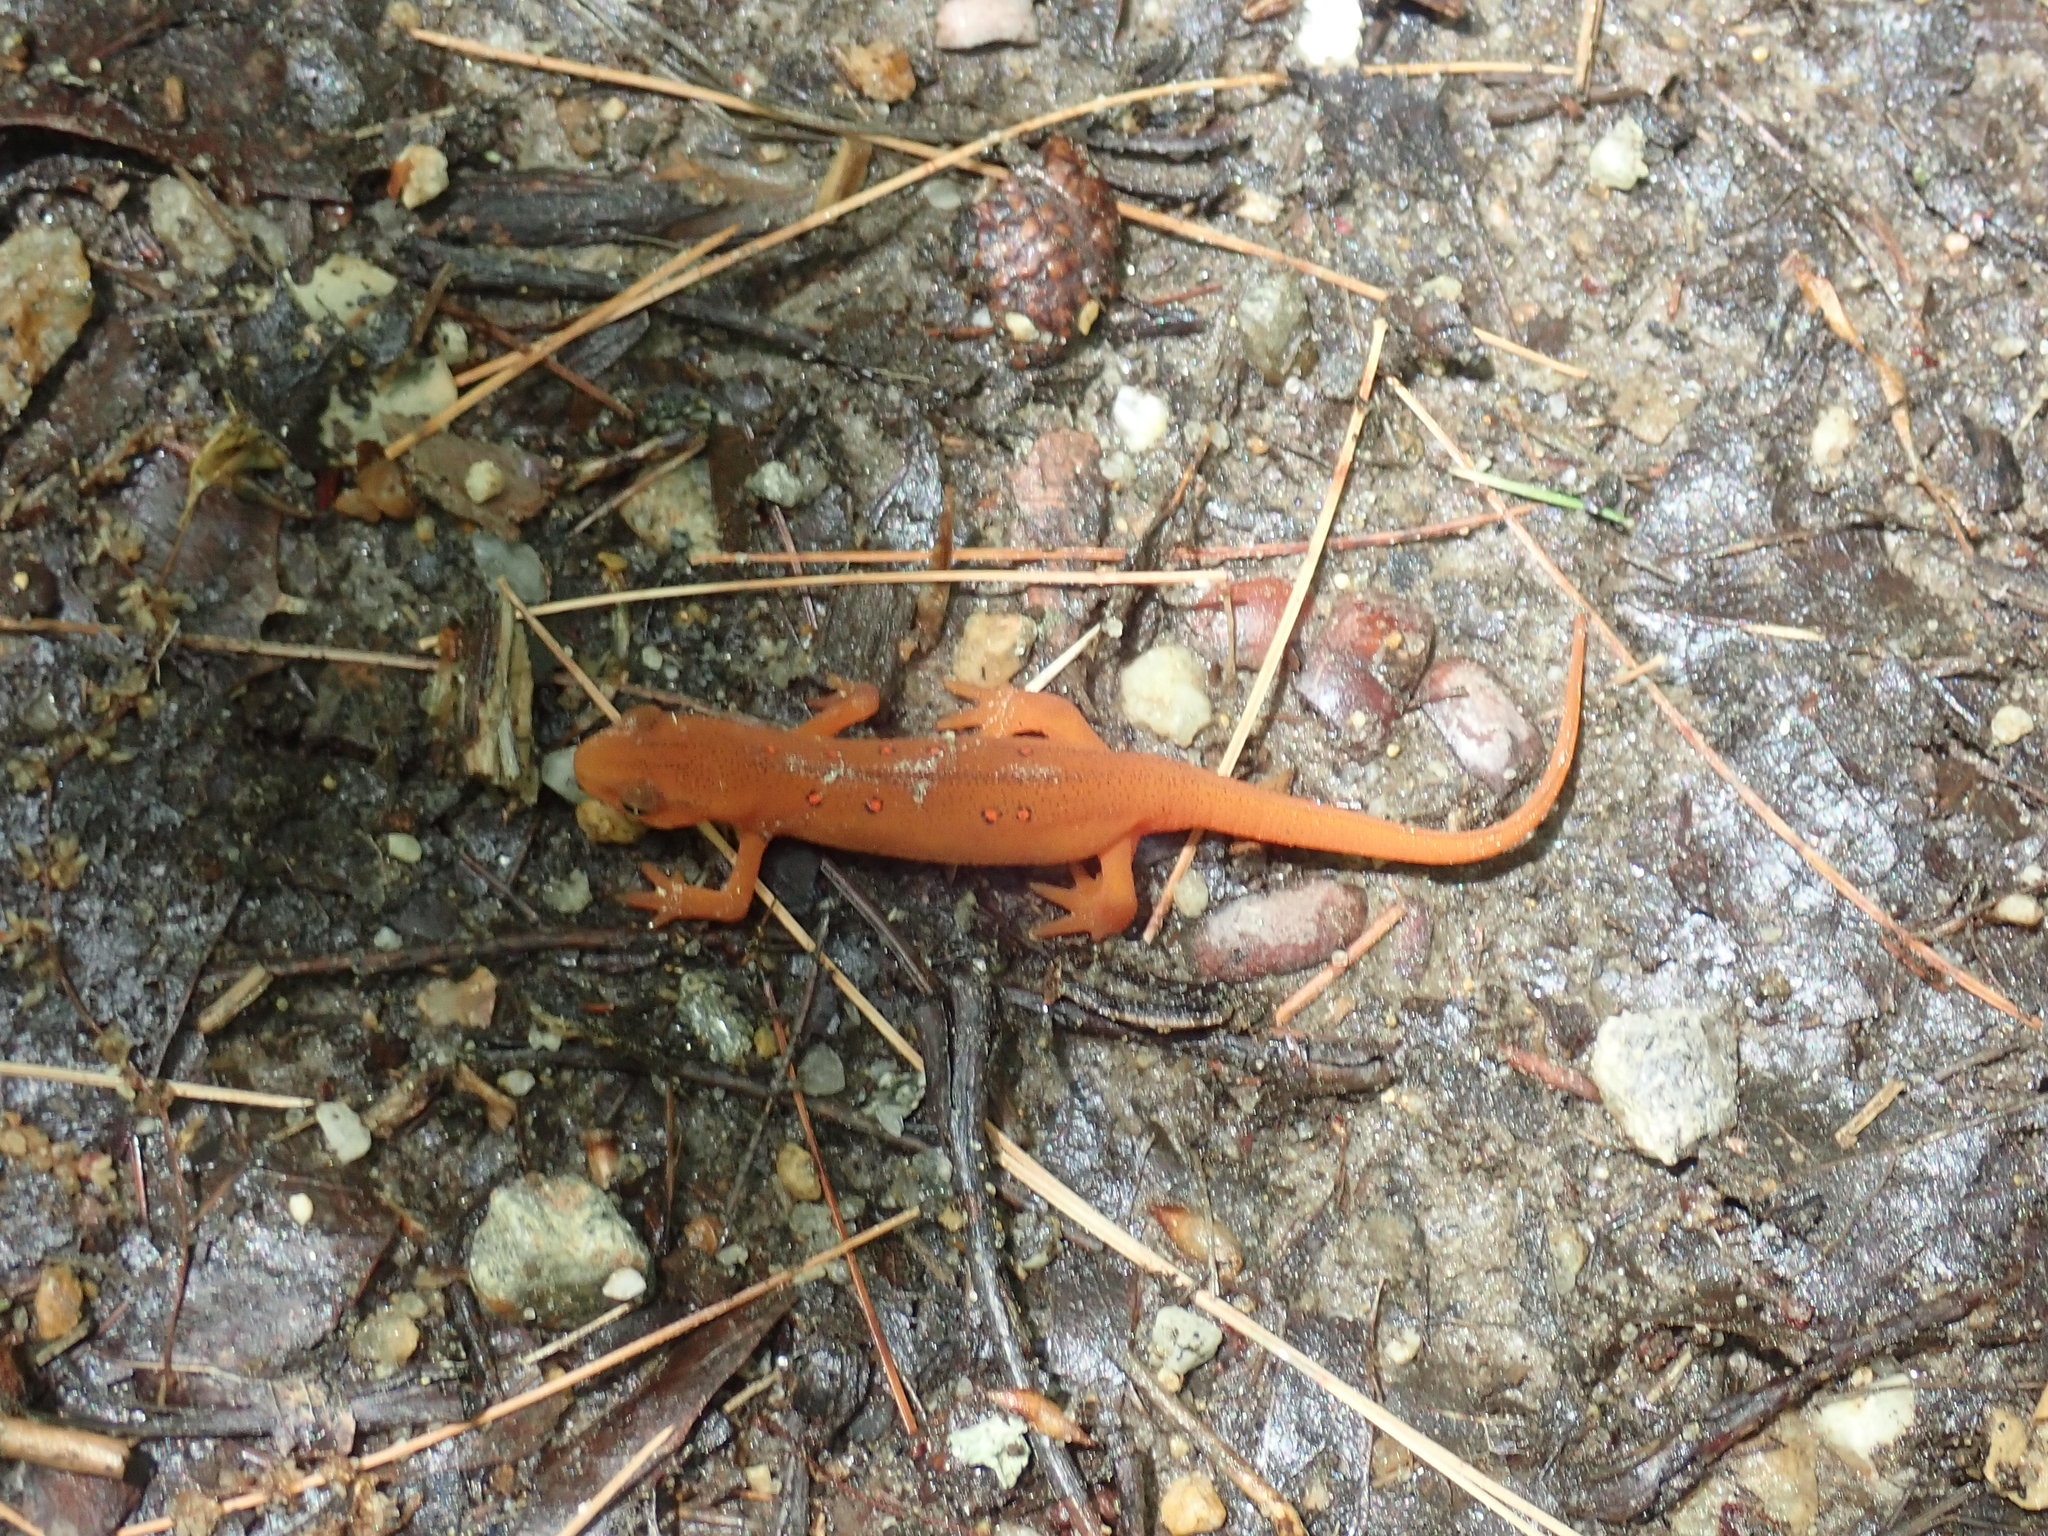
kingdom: Animalia
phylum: Chordata
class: Amphibia
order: Caudata
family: Salamandridae
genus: Notophthalmus
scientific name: Notophthalmus viridescens
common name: Eastern newt
